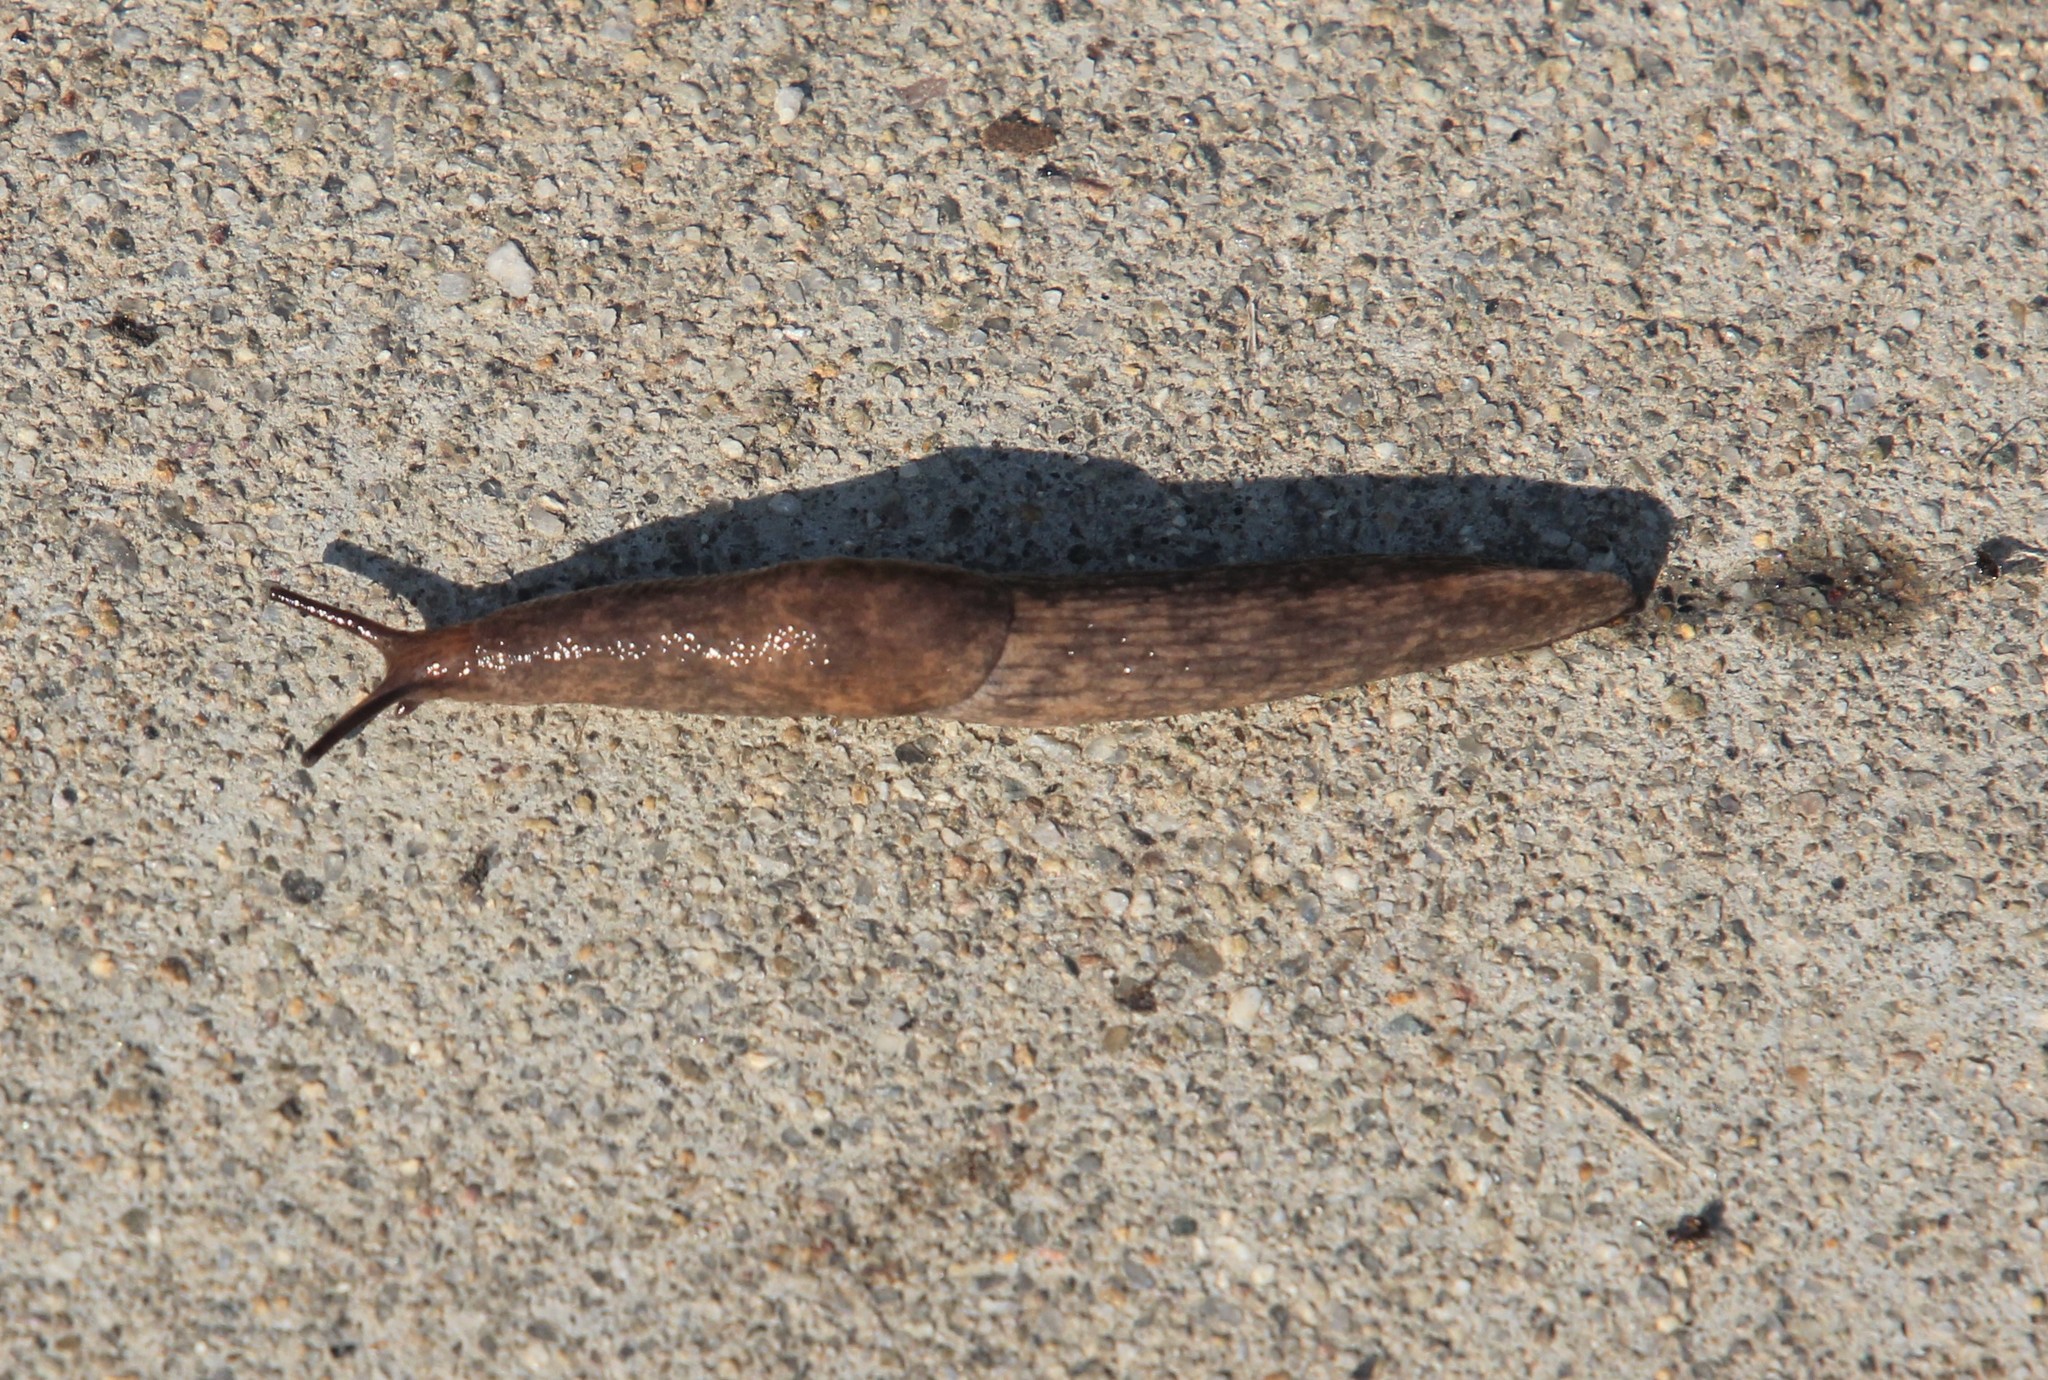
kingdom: Animalia
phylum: Mollusca
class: Gastropoda
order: Stylommatophora
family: Agriolimacidae
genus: Deroceras
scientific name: Deroceras reticulatum
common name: Gray field slug
